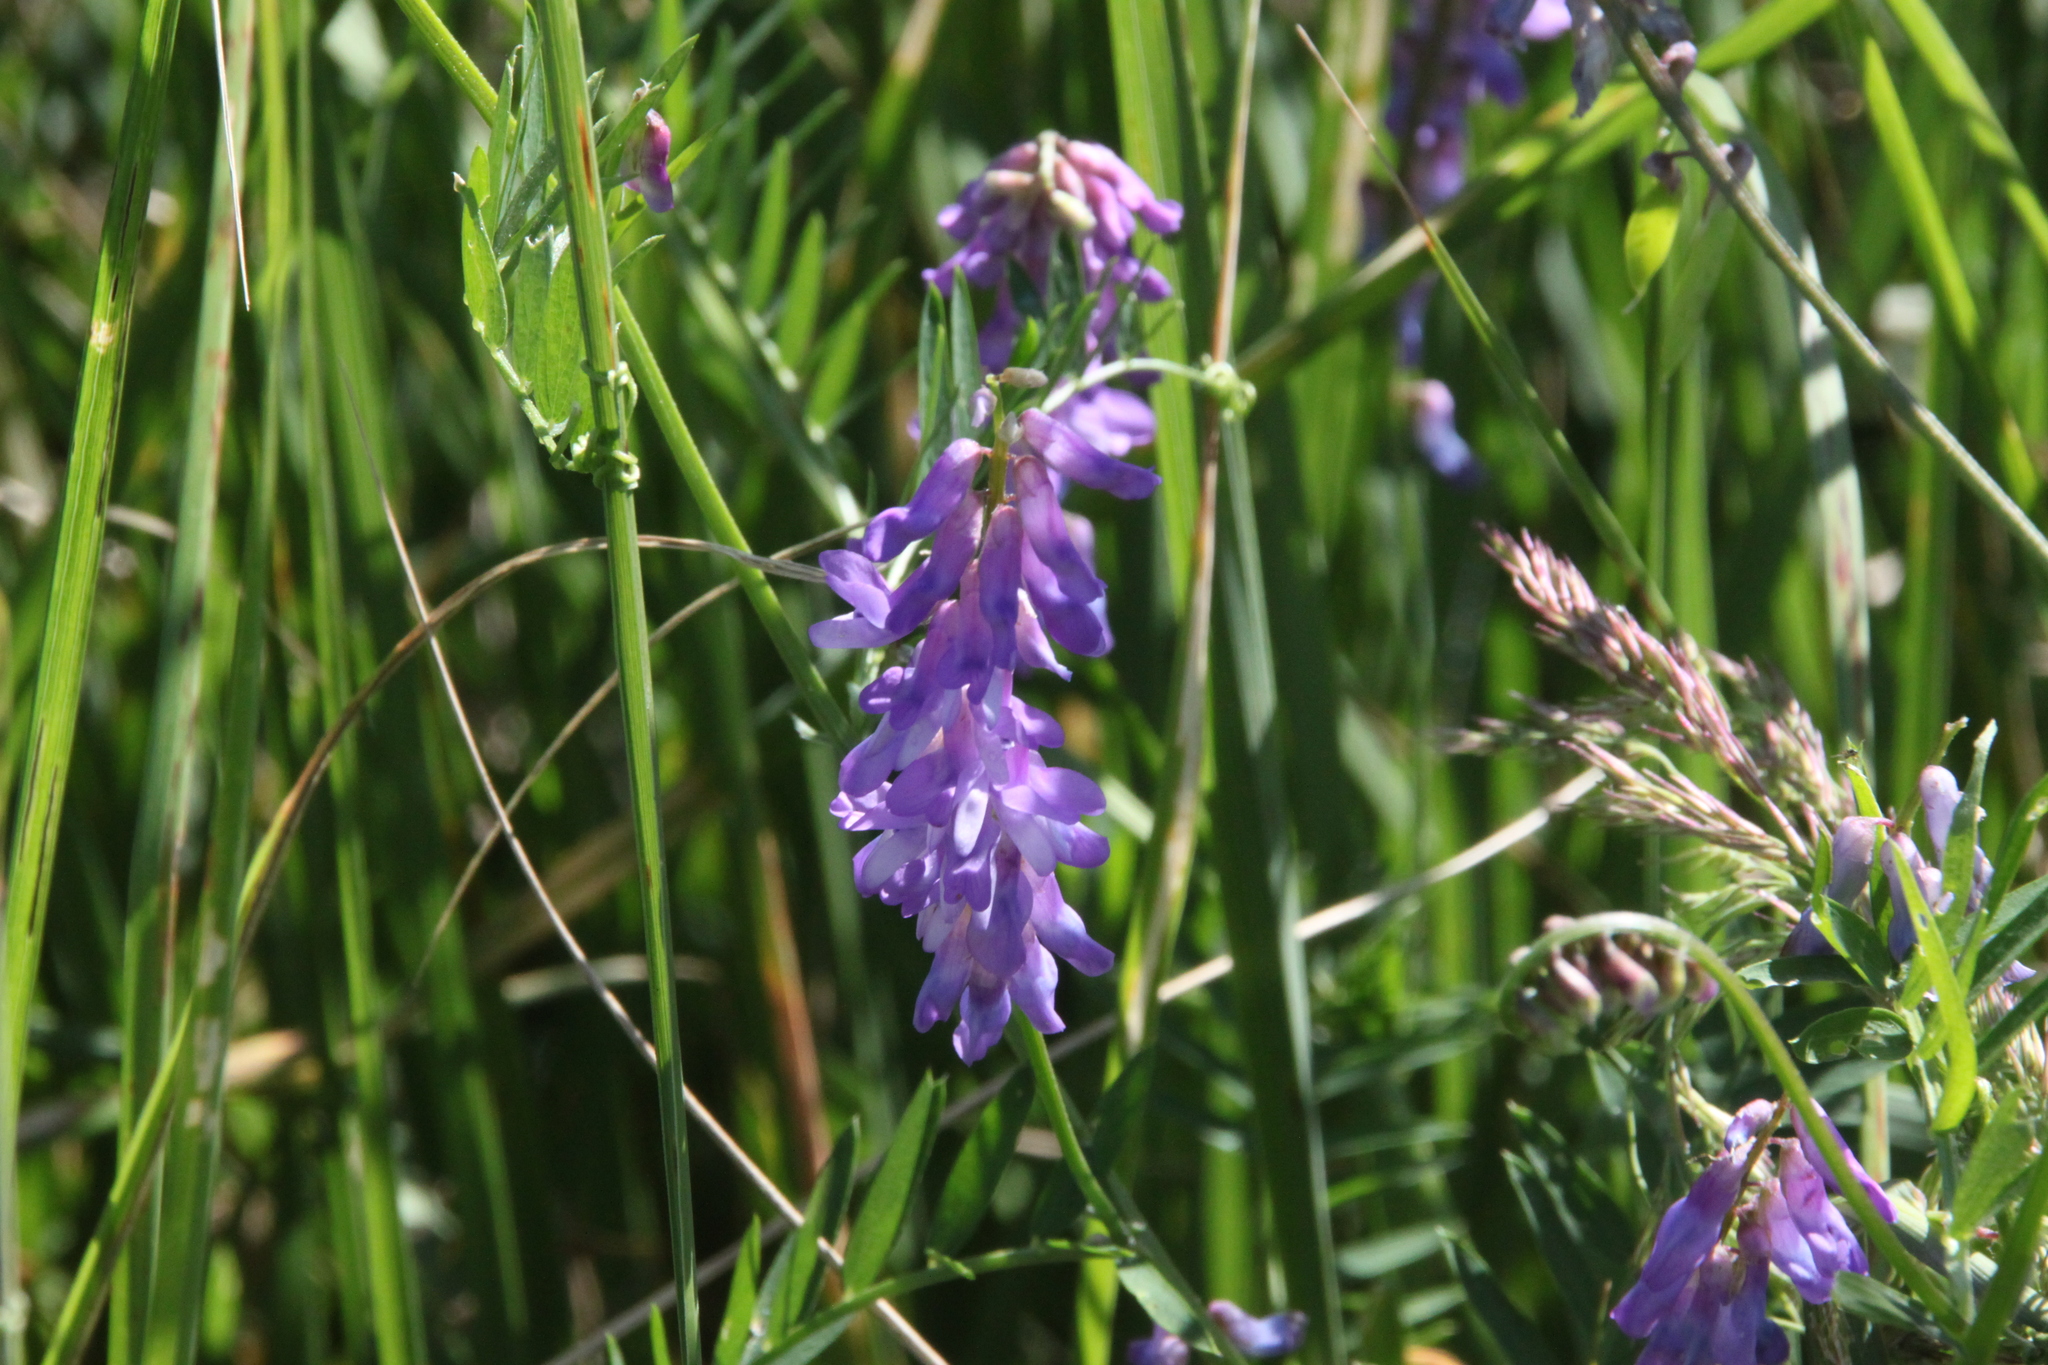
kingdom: Plantae
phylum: Tracheophyta
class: Magnoliopsida
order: Fabales
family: Fabaceae
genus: Vicia
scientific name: Vicia cracca
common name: Bird vetch
